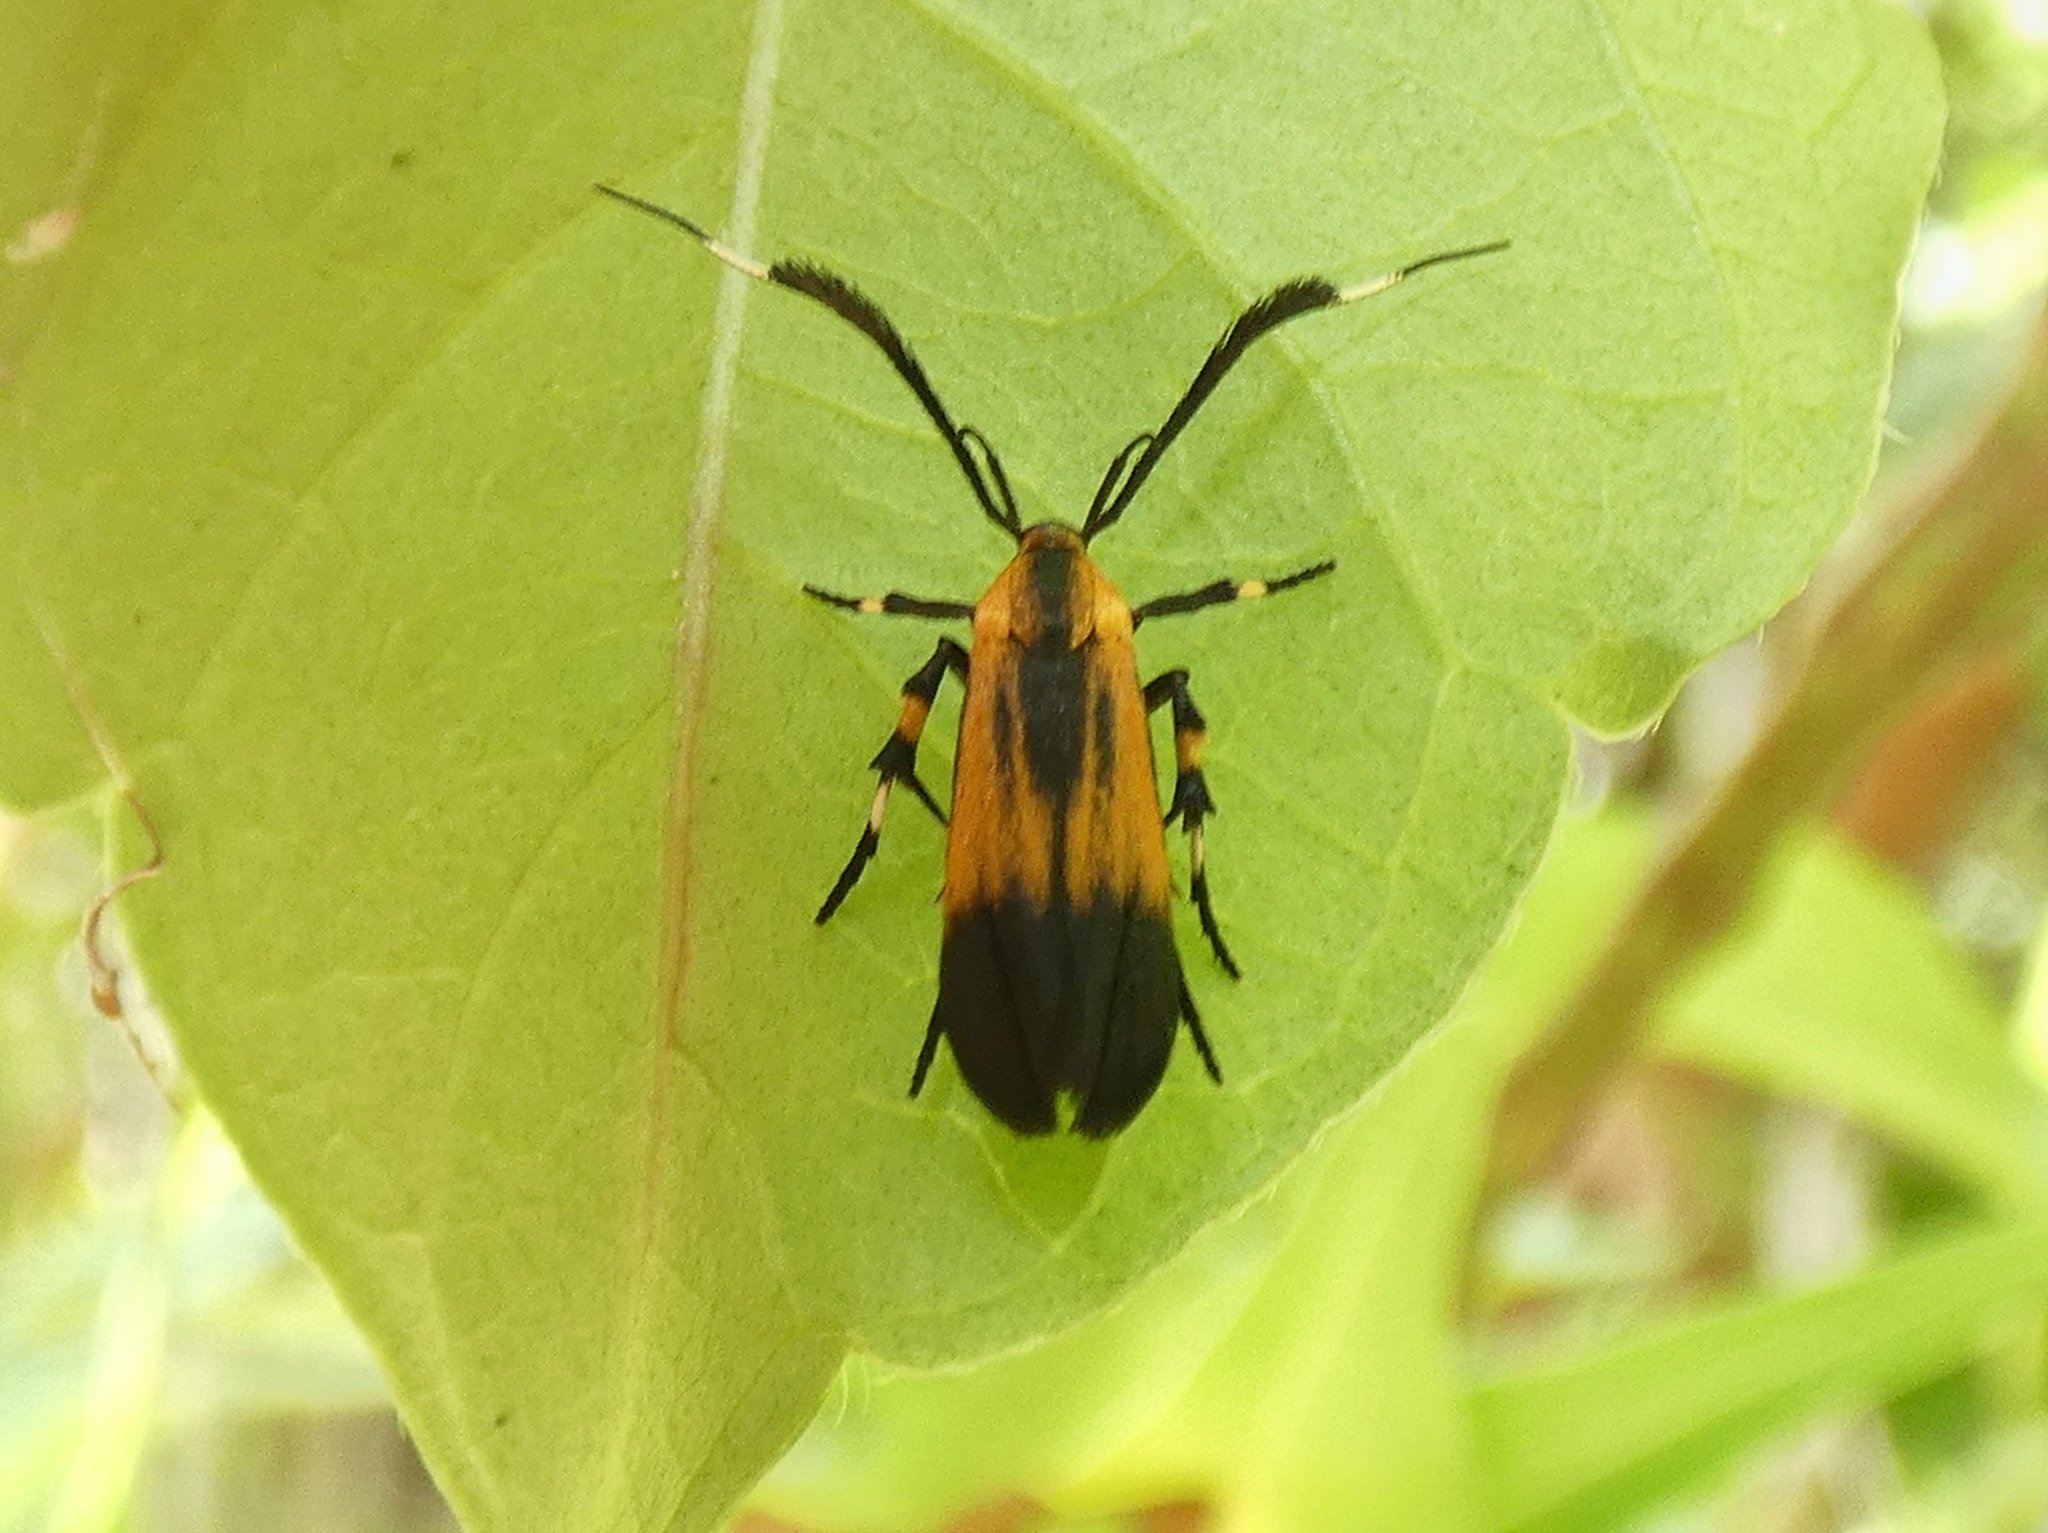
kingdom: Animalia
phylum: Arthropoda
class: Insecta
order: Lepidoptera
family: Stathmopodidae
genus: Tinaegeria
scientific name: Tinaegeria carlosalvaradoi
